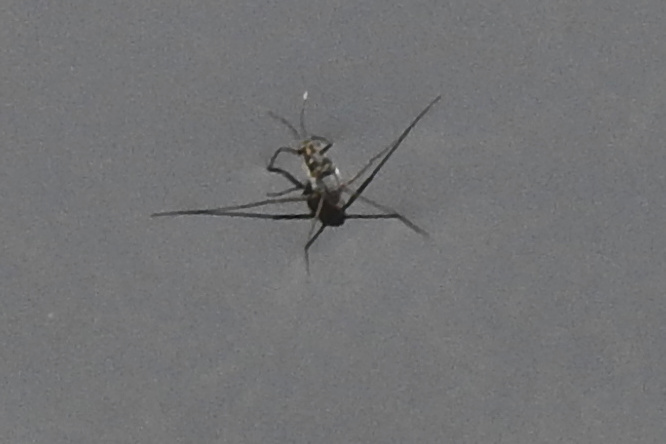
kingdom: Animalia
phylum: Arthropoda
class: Insecta
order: Hemiptera
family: Gerridae
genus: Trepobates
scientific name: Trepobates subnitidus
